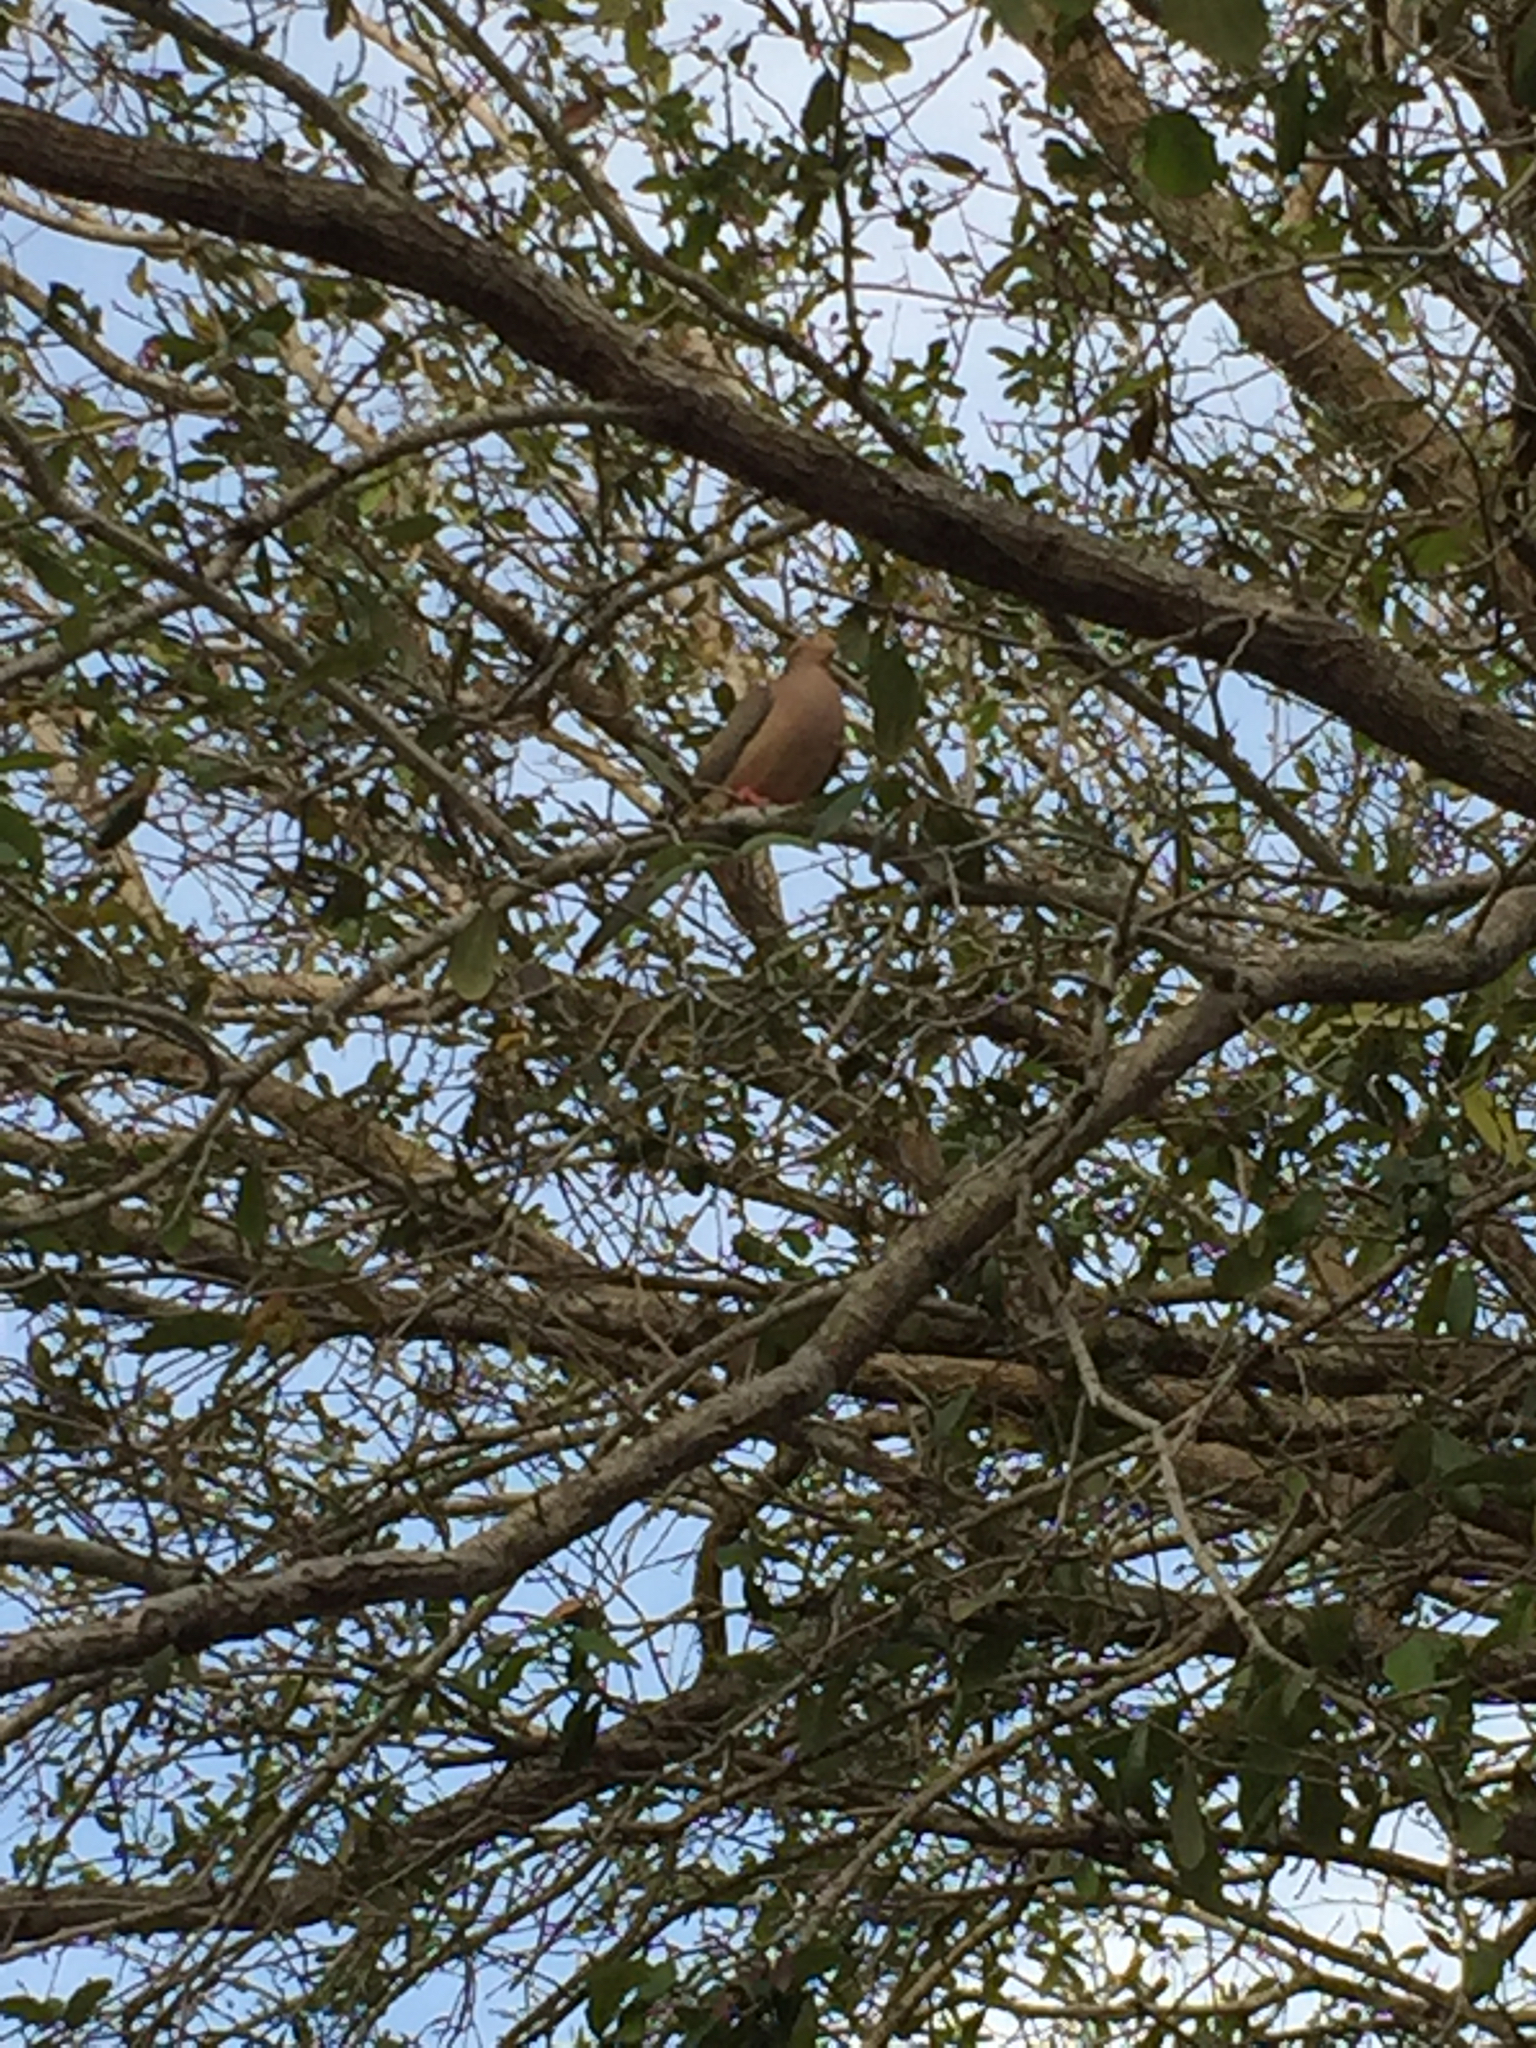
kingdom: Animalia
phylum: Chordata
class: Aves
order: Columbiformes
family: Columbidae
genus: Zenaida
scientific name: Zenaida macroura
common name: Mourning dove
